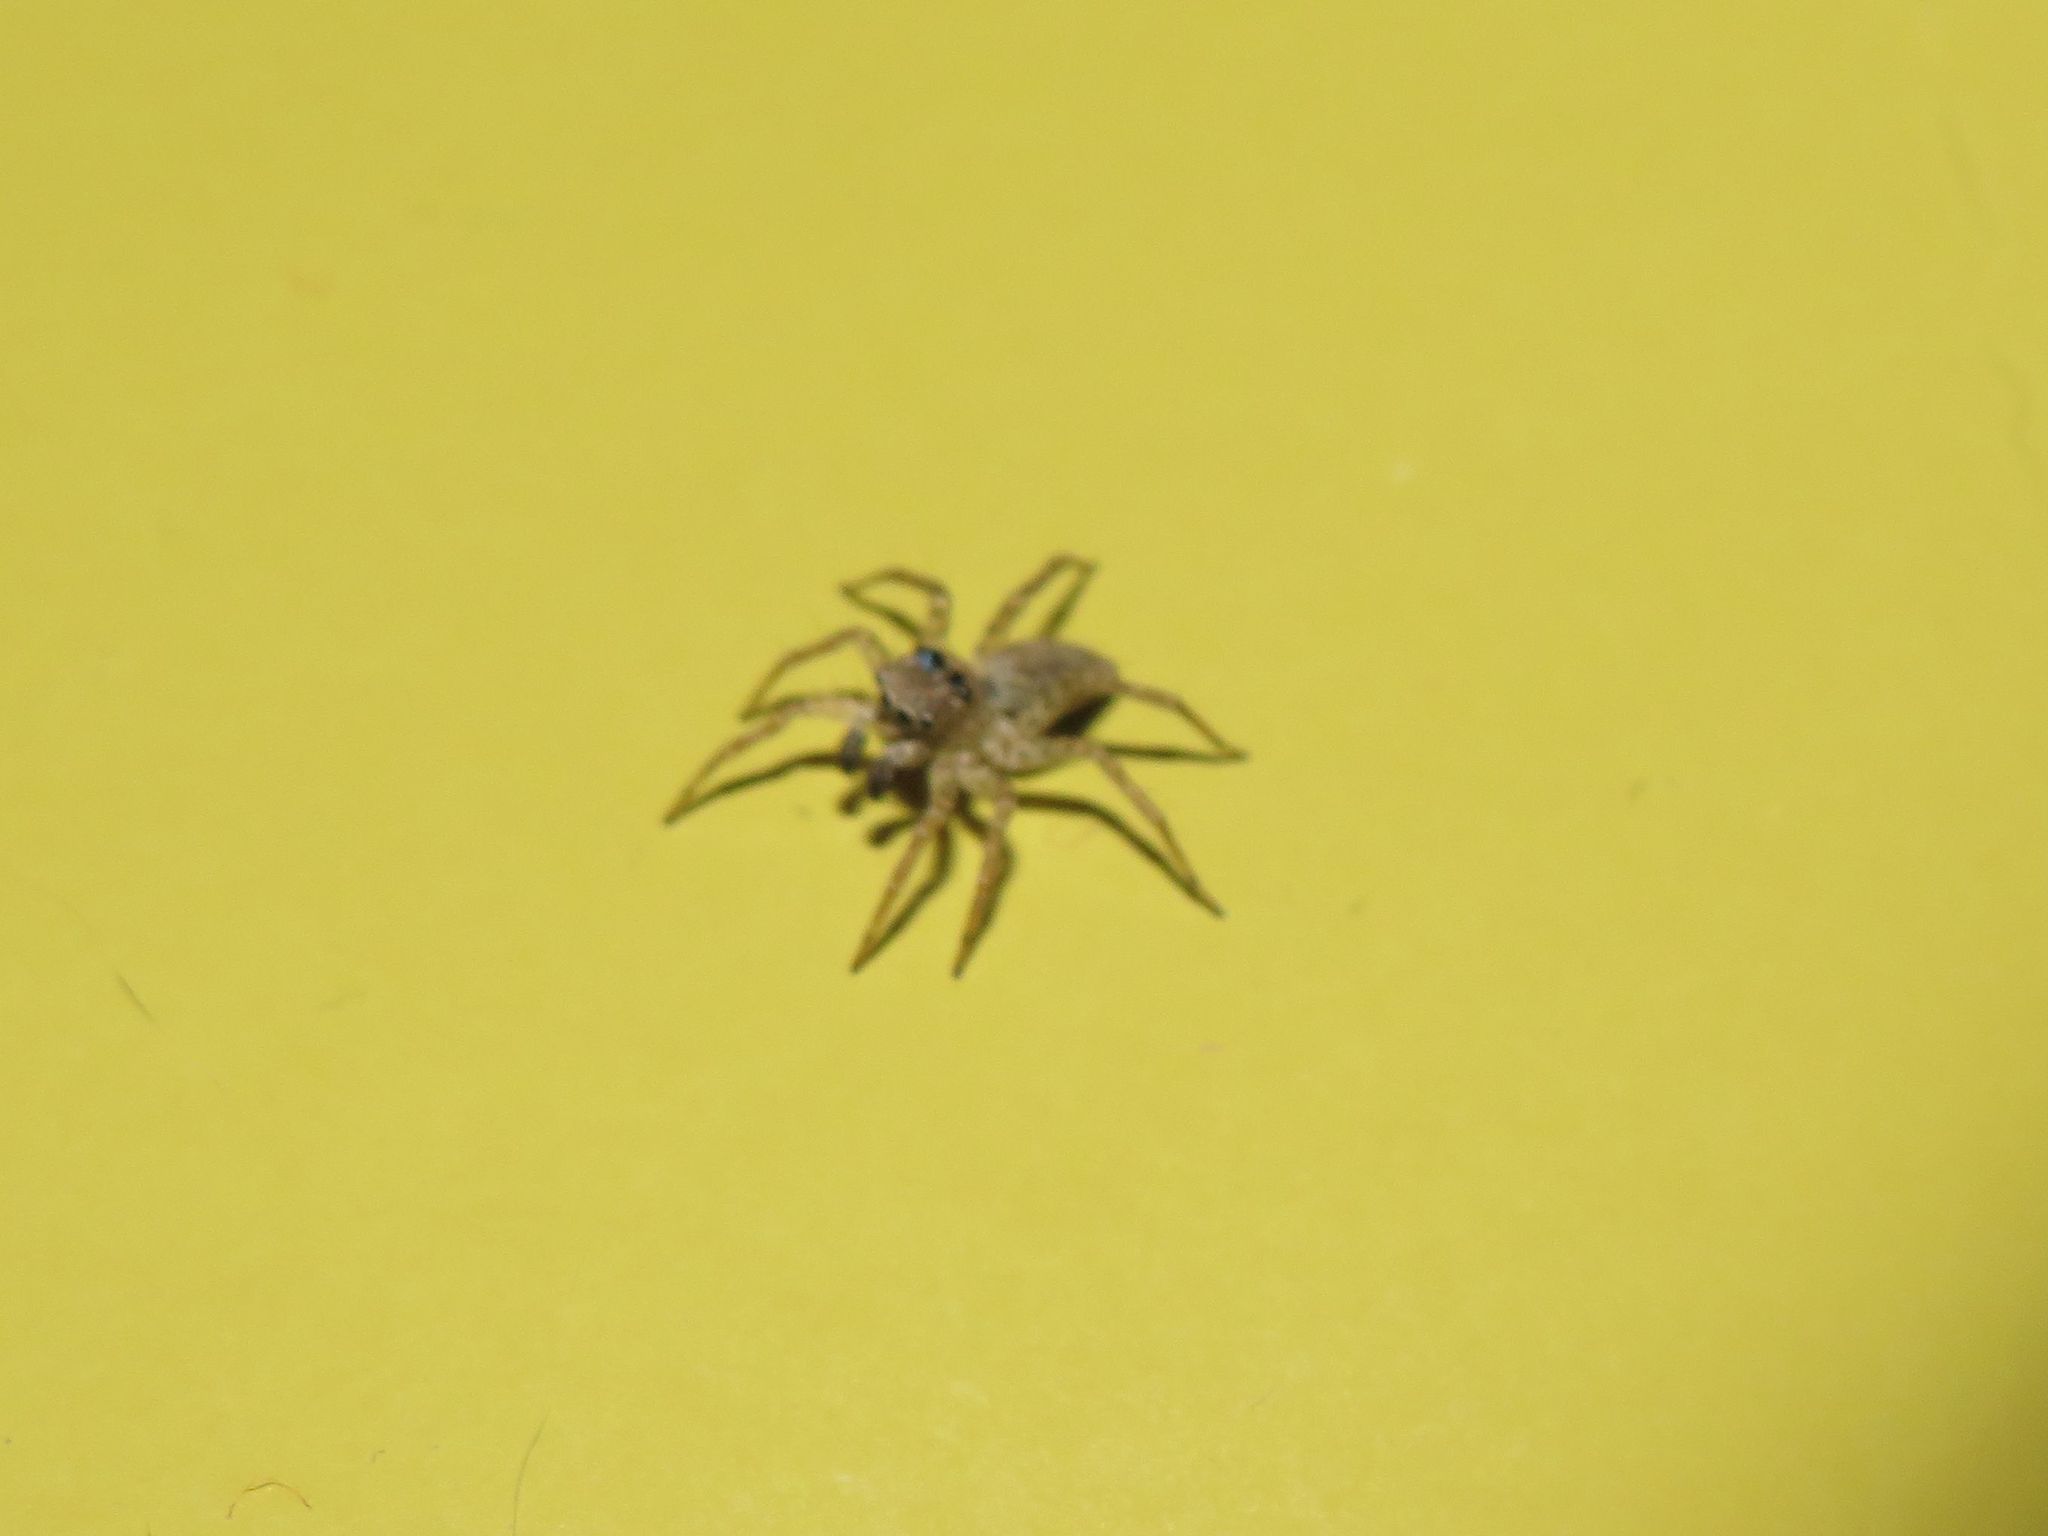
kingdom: Animalia
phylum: Arthropoda
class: Arachnida
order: Araneae
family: Salticidae
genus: Saitis
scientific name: Saitis variegatus
